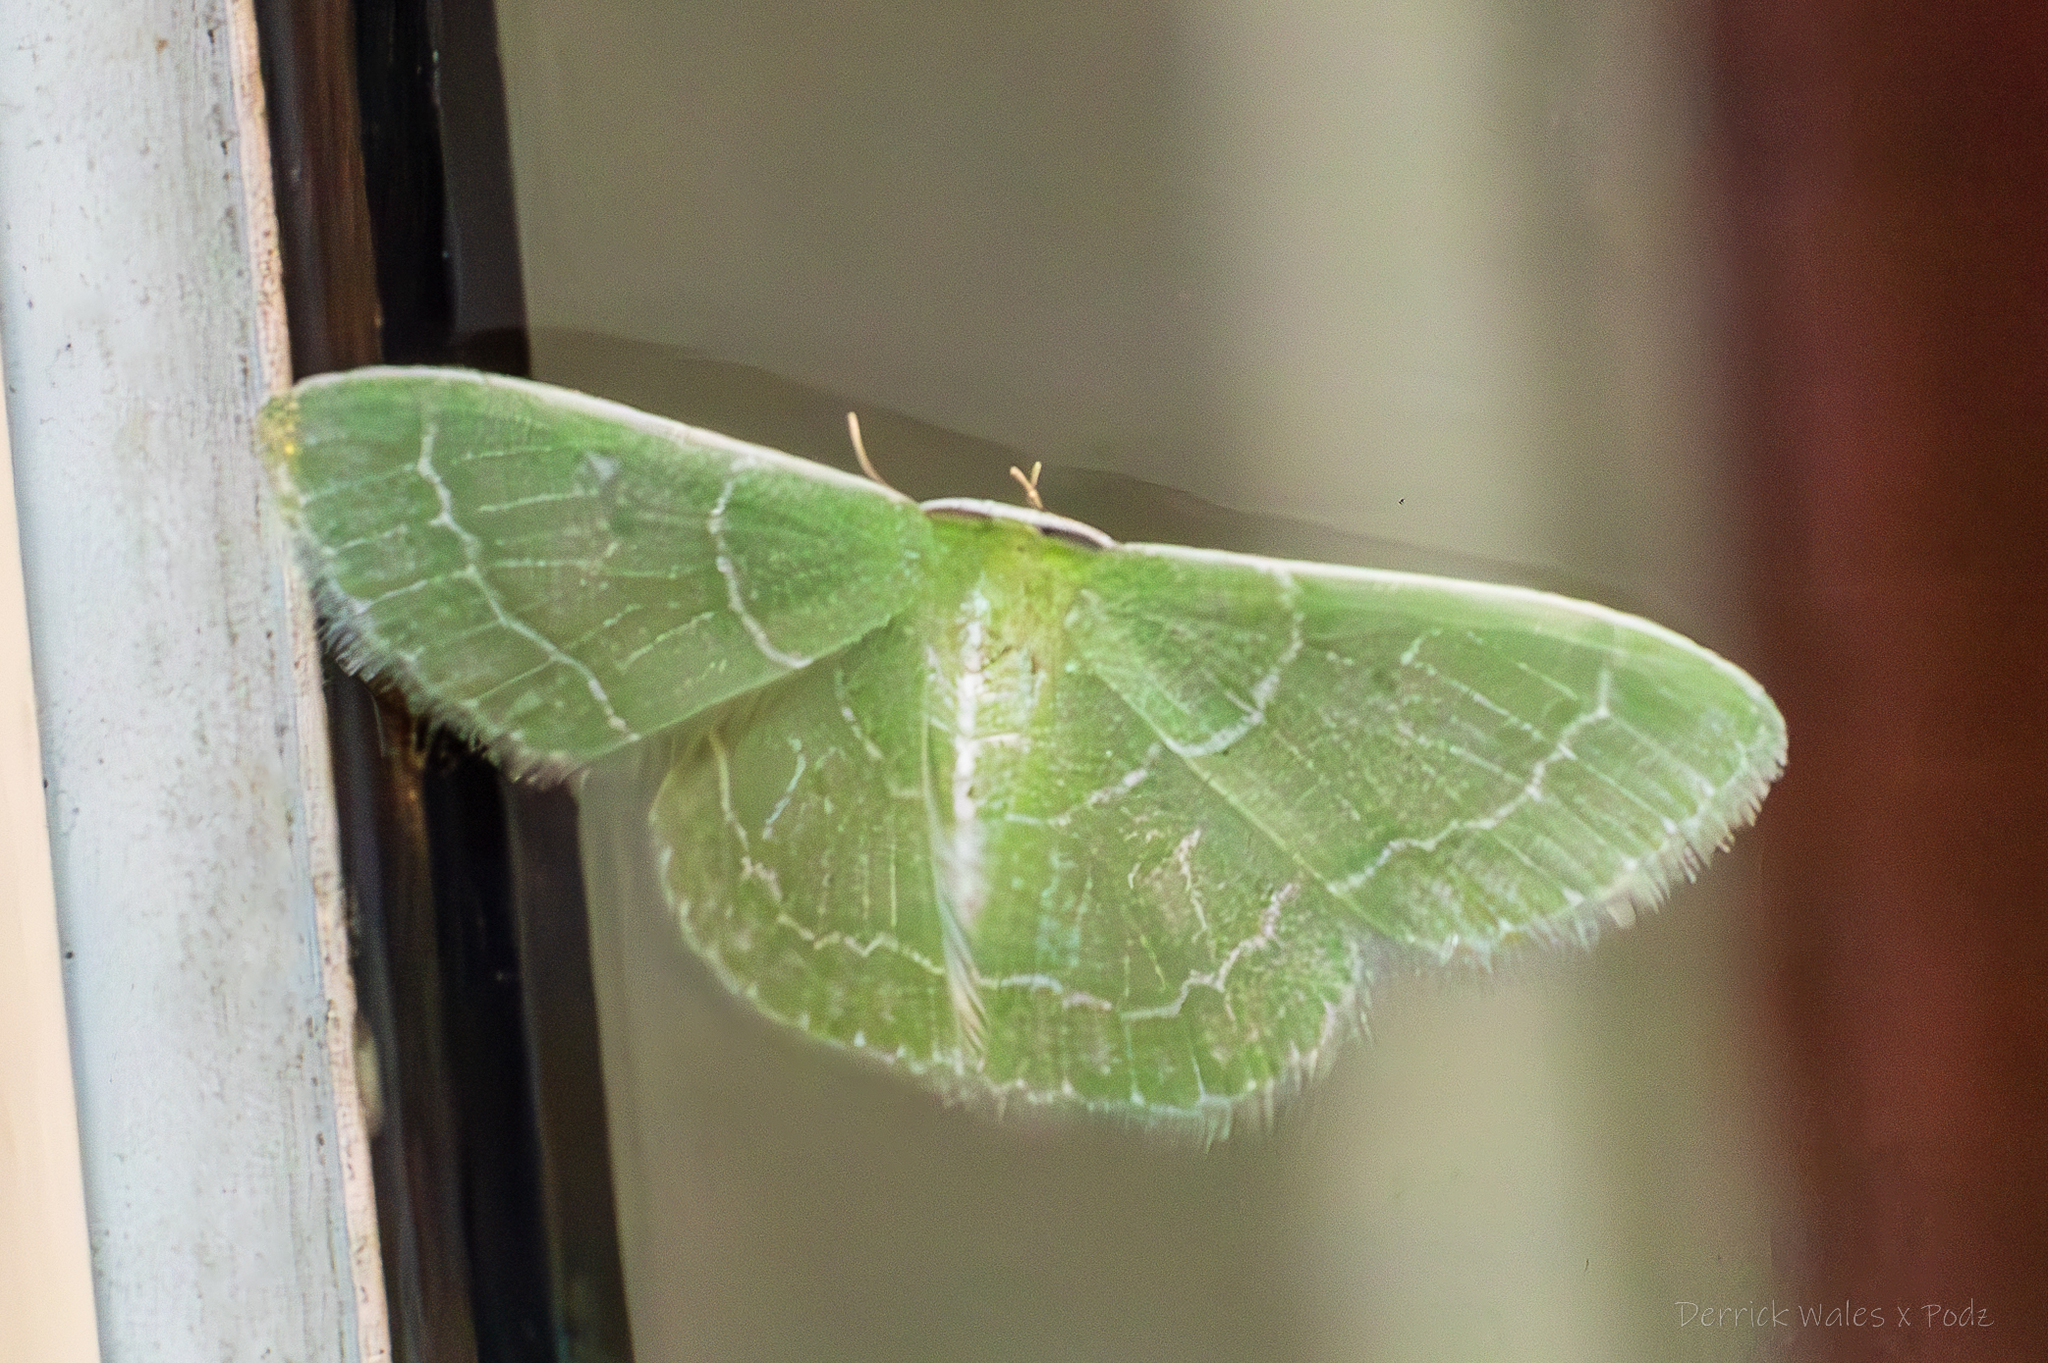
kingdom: Animalia
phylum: Arthropoda
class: Insecta
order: Lepidoptera
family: Geometridae
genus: Synchlora
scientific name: Synchlora frondaria
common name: Southern emerald
